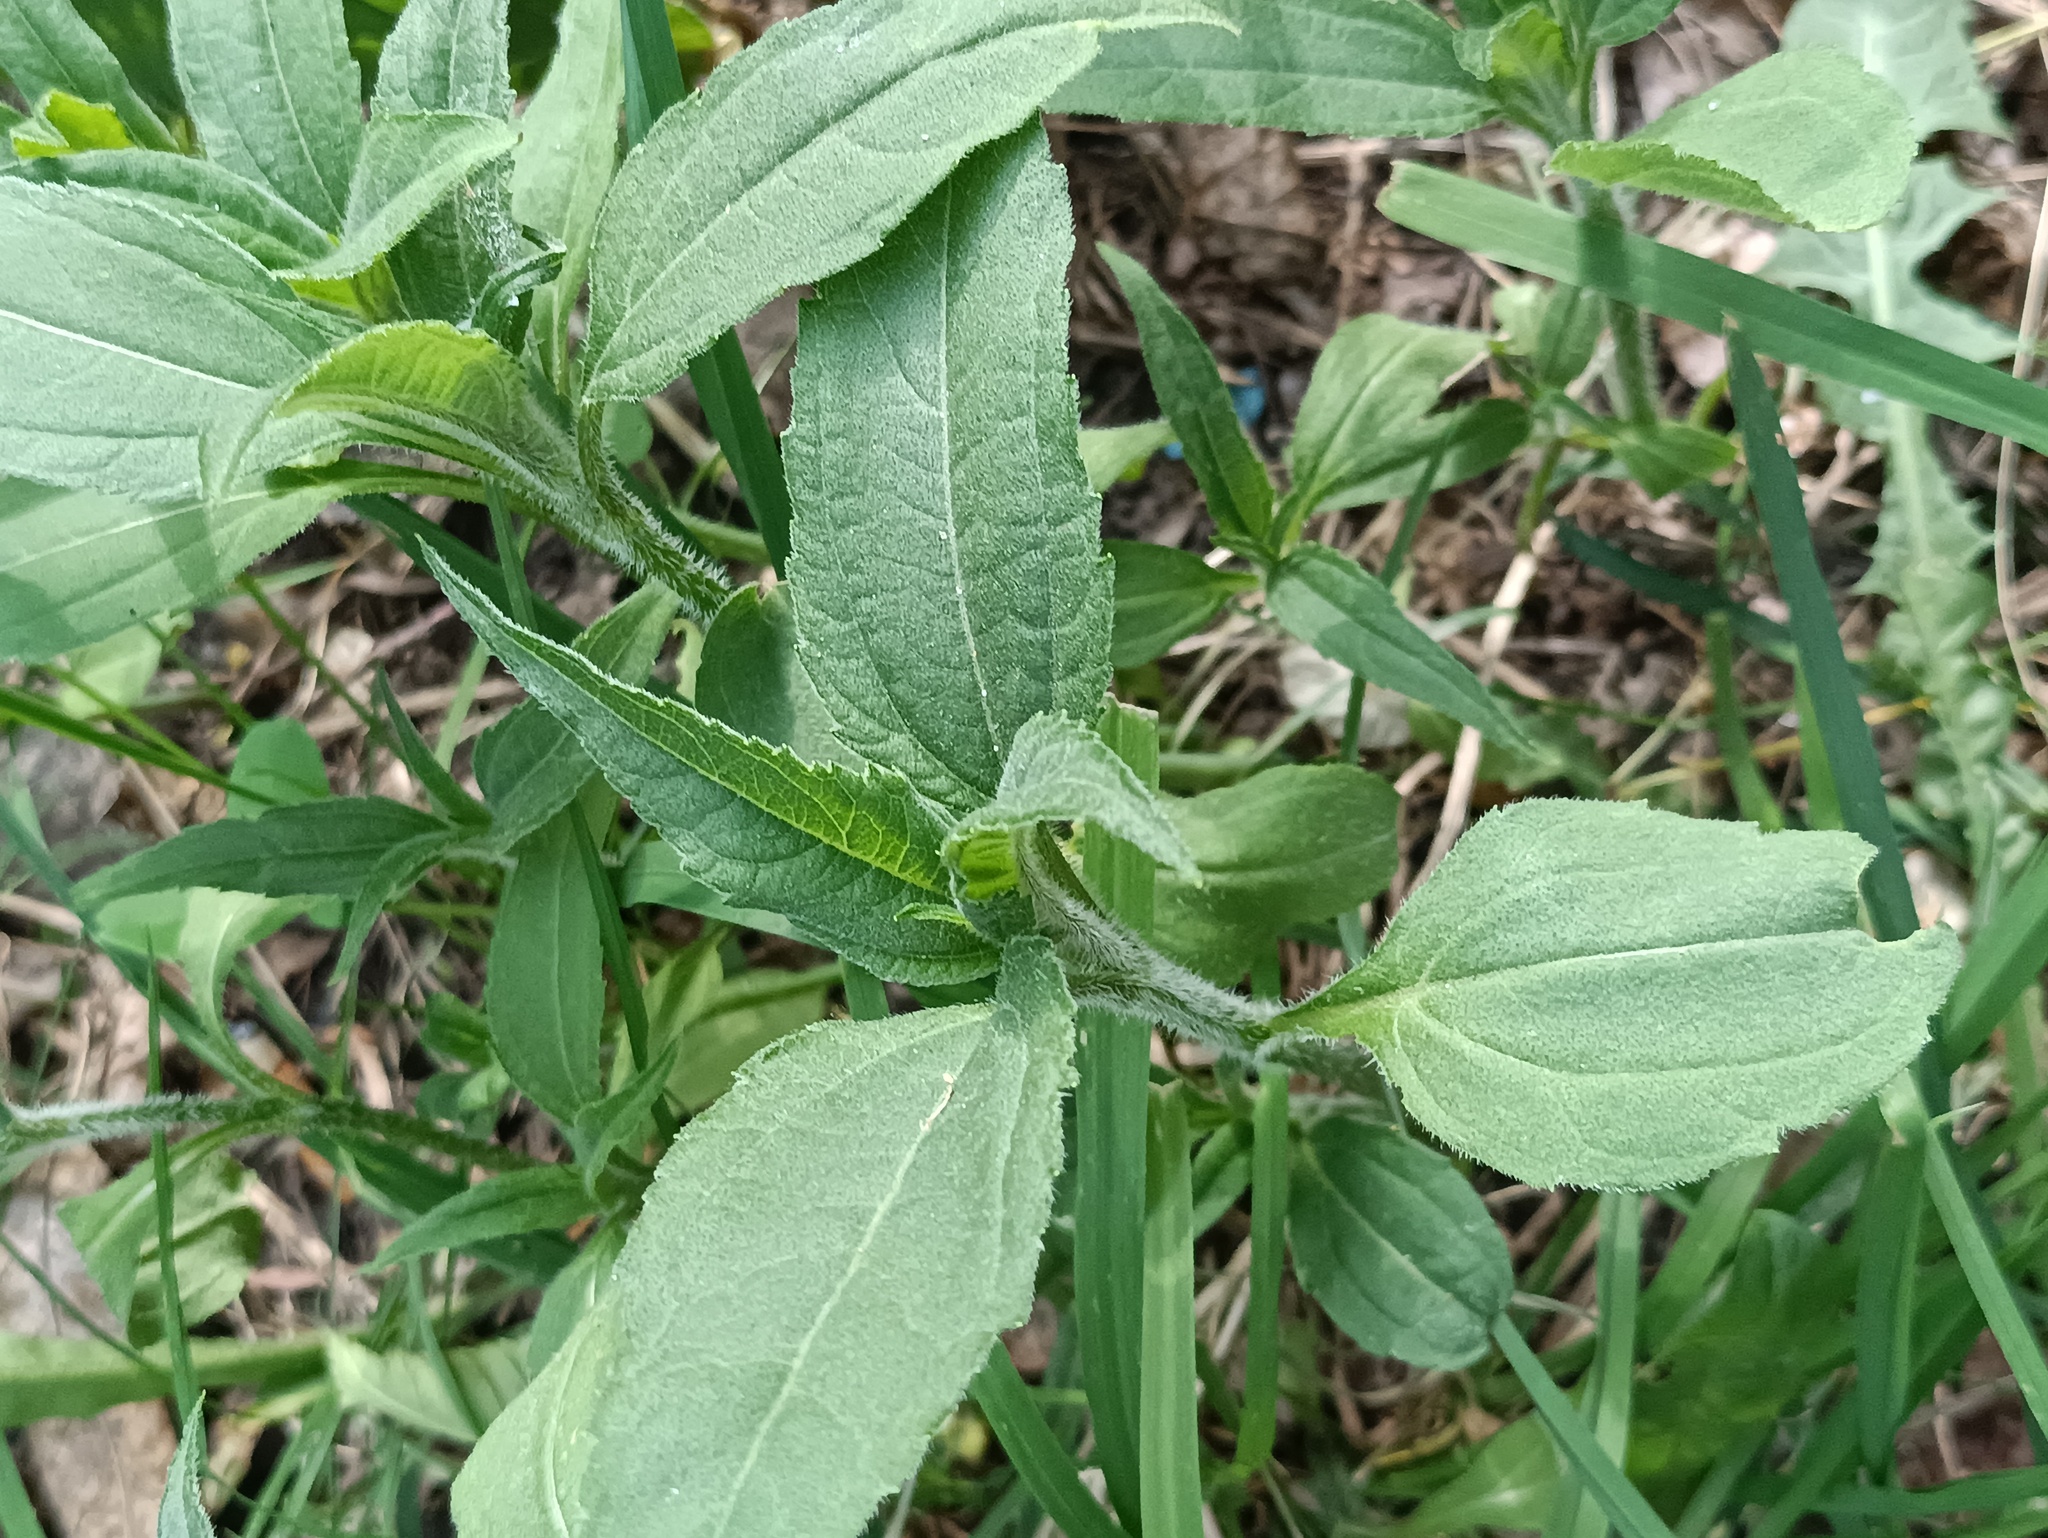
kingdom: Plantae
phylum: Tracheophyta
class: Magnoliopsida
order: Asterales
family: Asteraceae
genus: Helianthus
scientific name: Helianthus tuberosus
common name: Jerusalem artichoke
